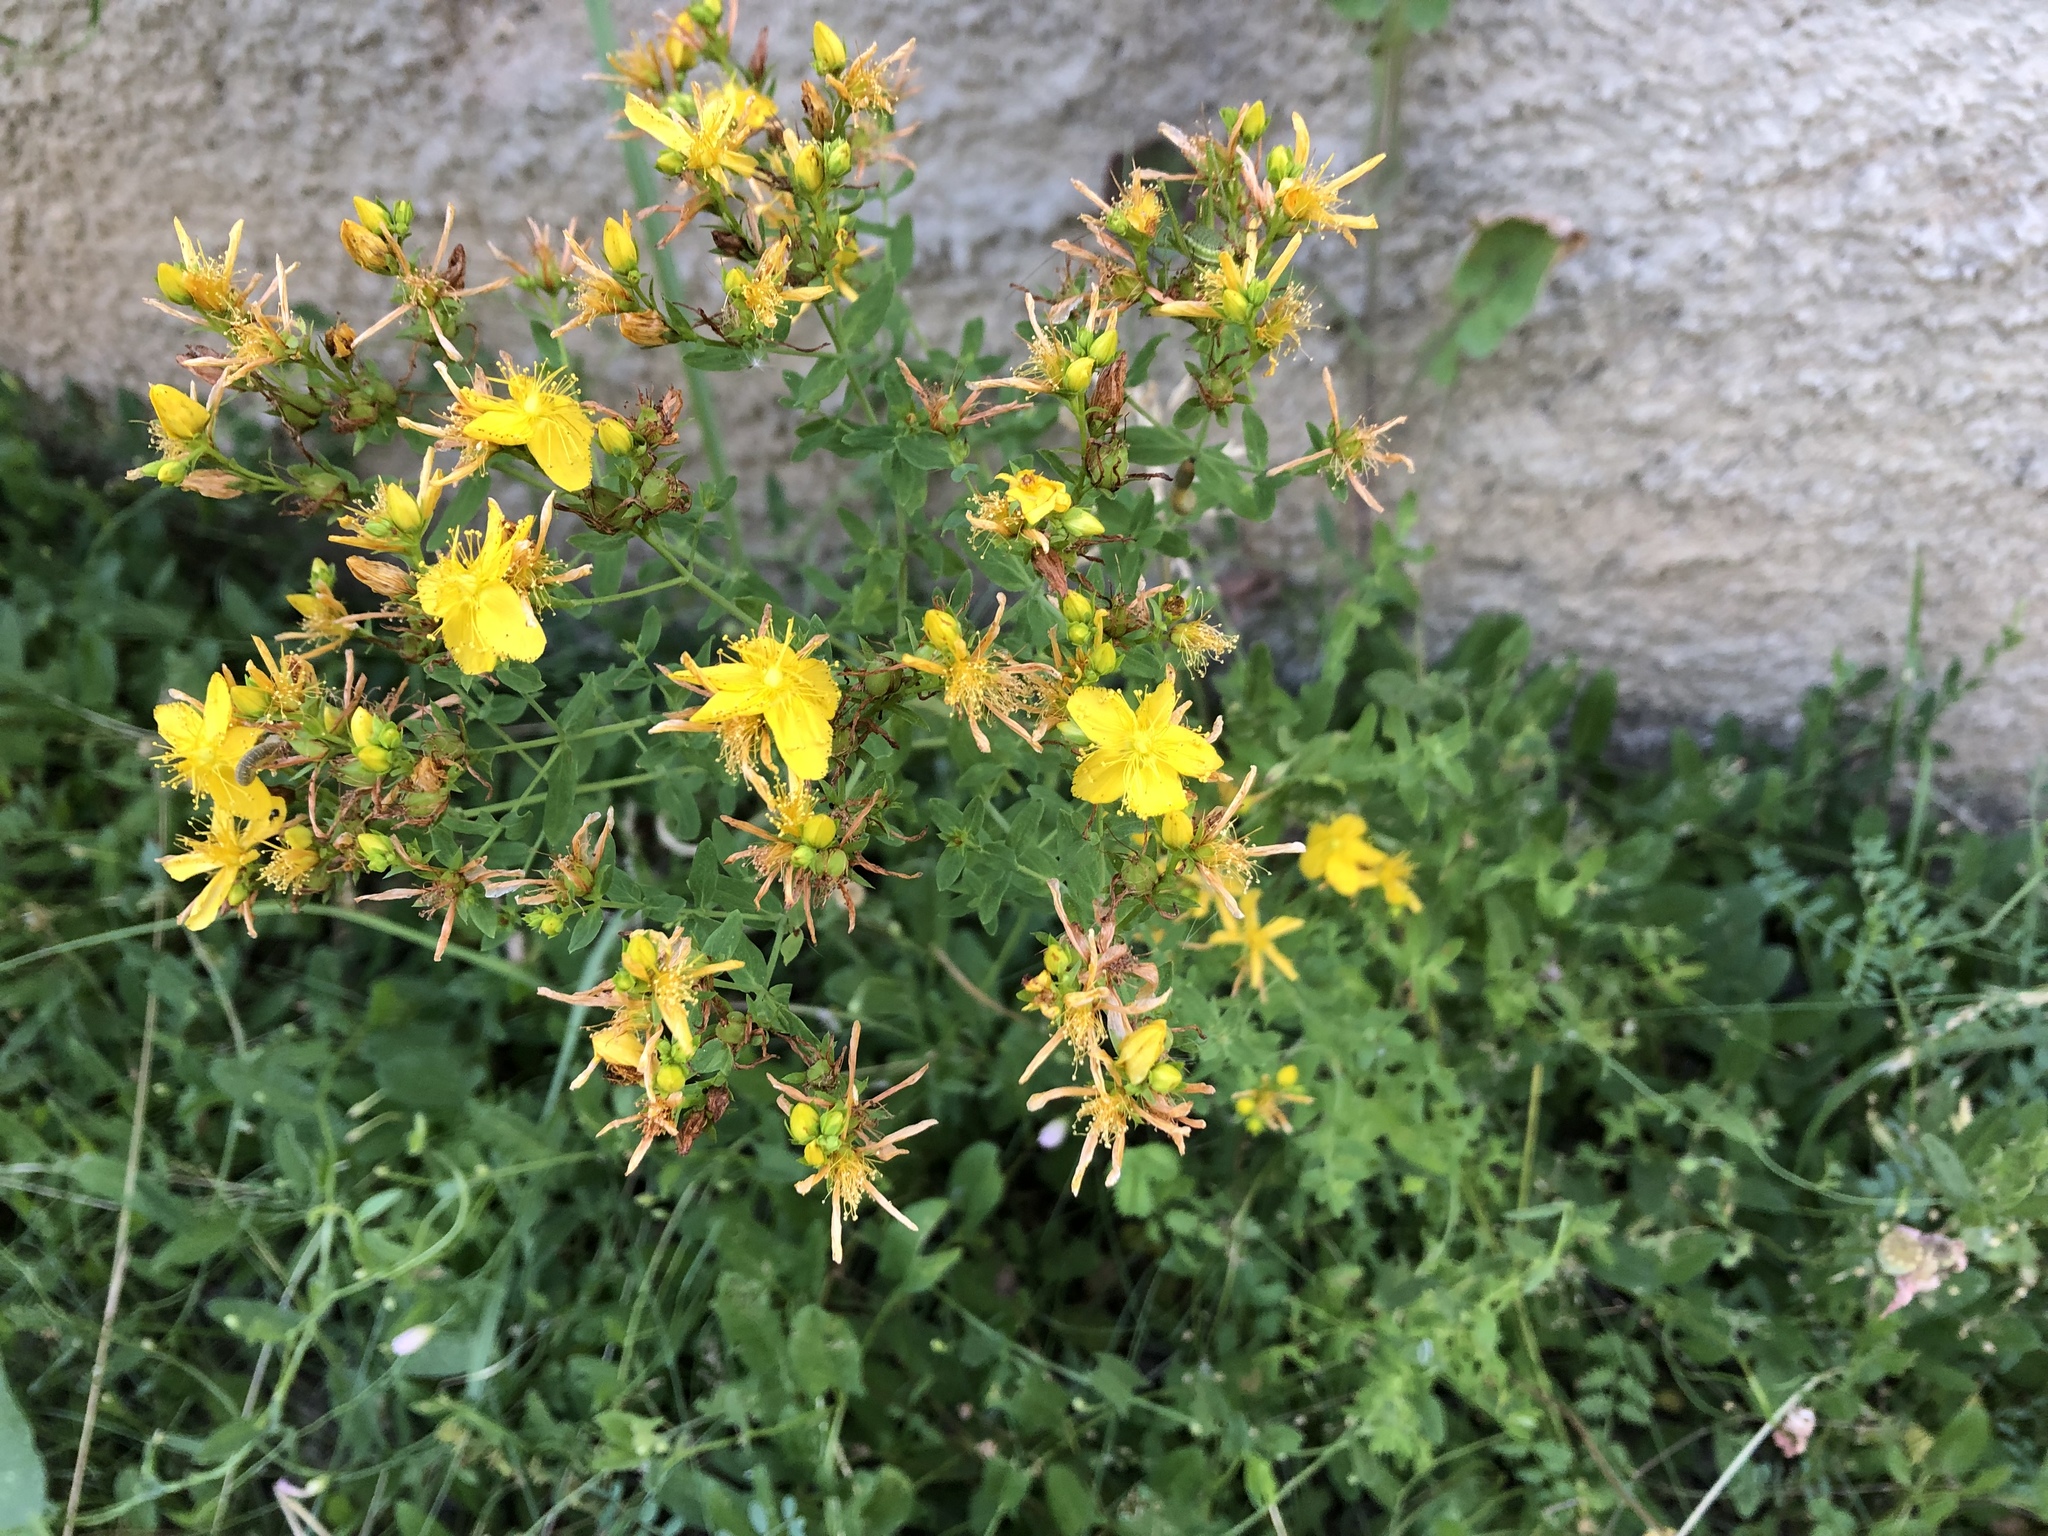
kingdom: Plantae
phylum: Tracheophyta
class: Magnoliopsida
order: Malpighiales
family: Hypericaceae
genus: Hypericum
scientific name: Hypericum perforatum
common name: Common st. johnswort
